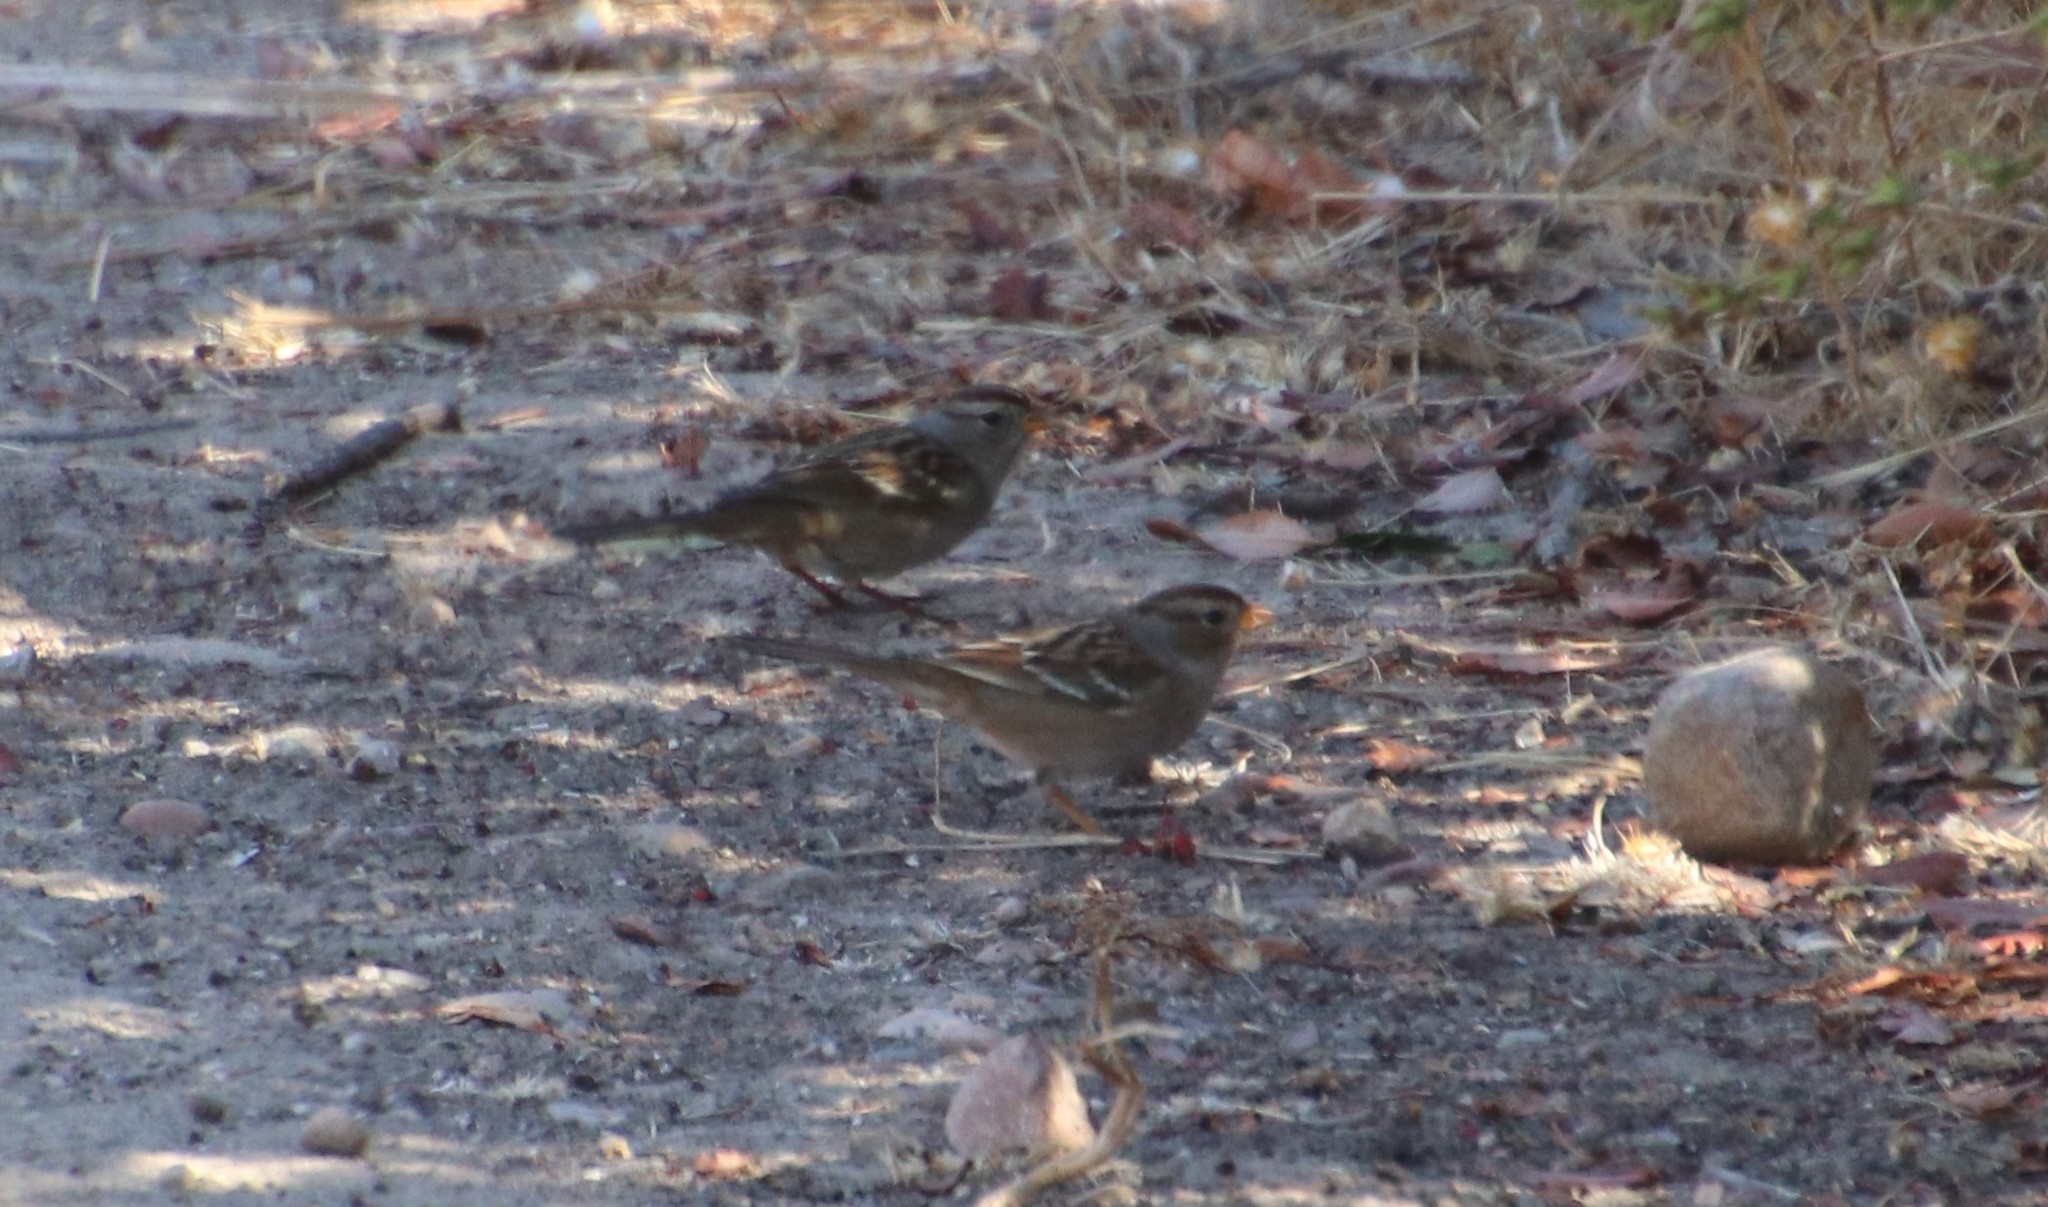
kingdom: Animalia
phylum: Chordata
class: Aves
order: Passeriformes
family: Passerellidae
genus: Zonotrichia
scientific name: Zonotrichia leucophrys
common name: White-crowned sparrow
